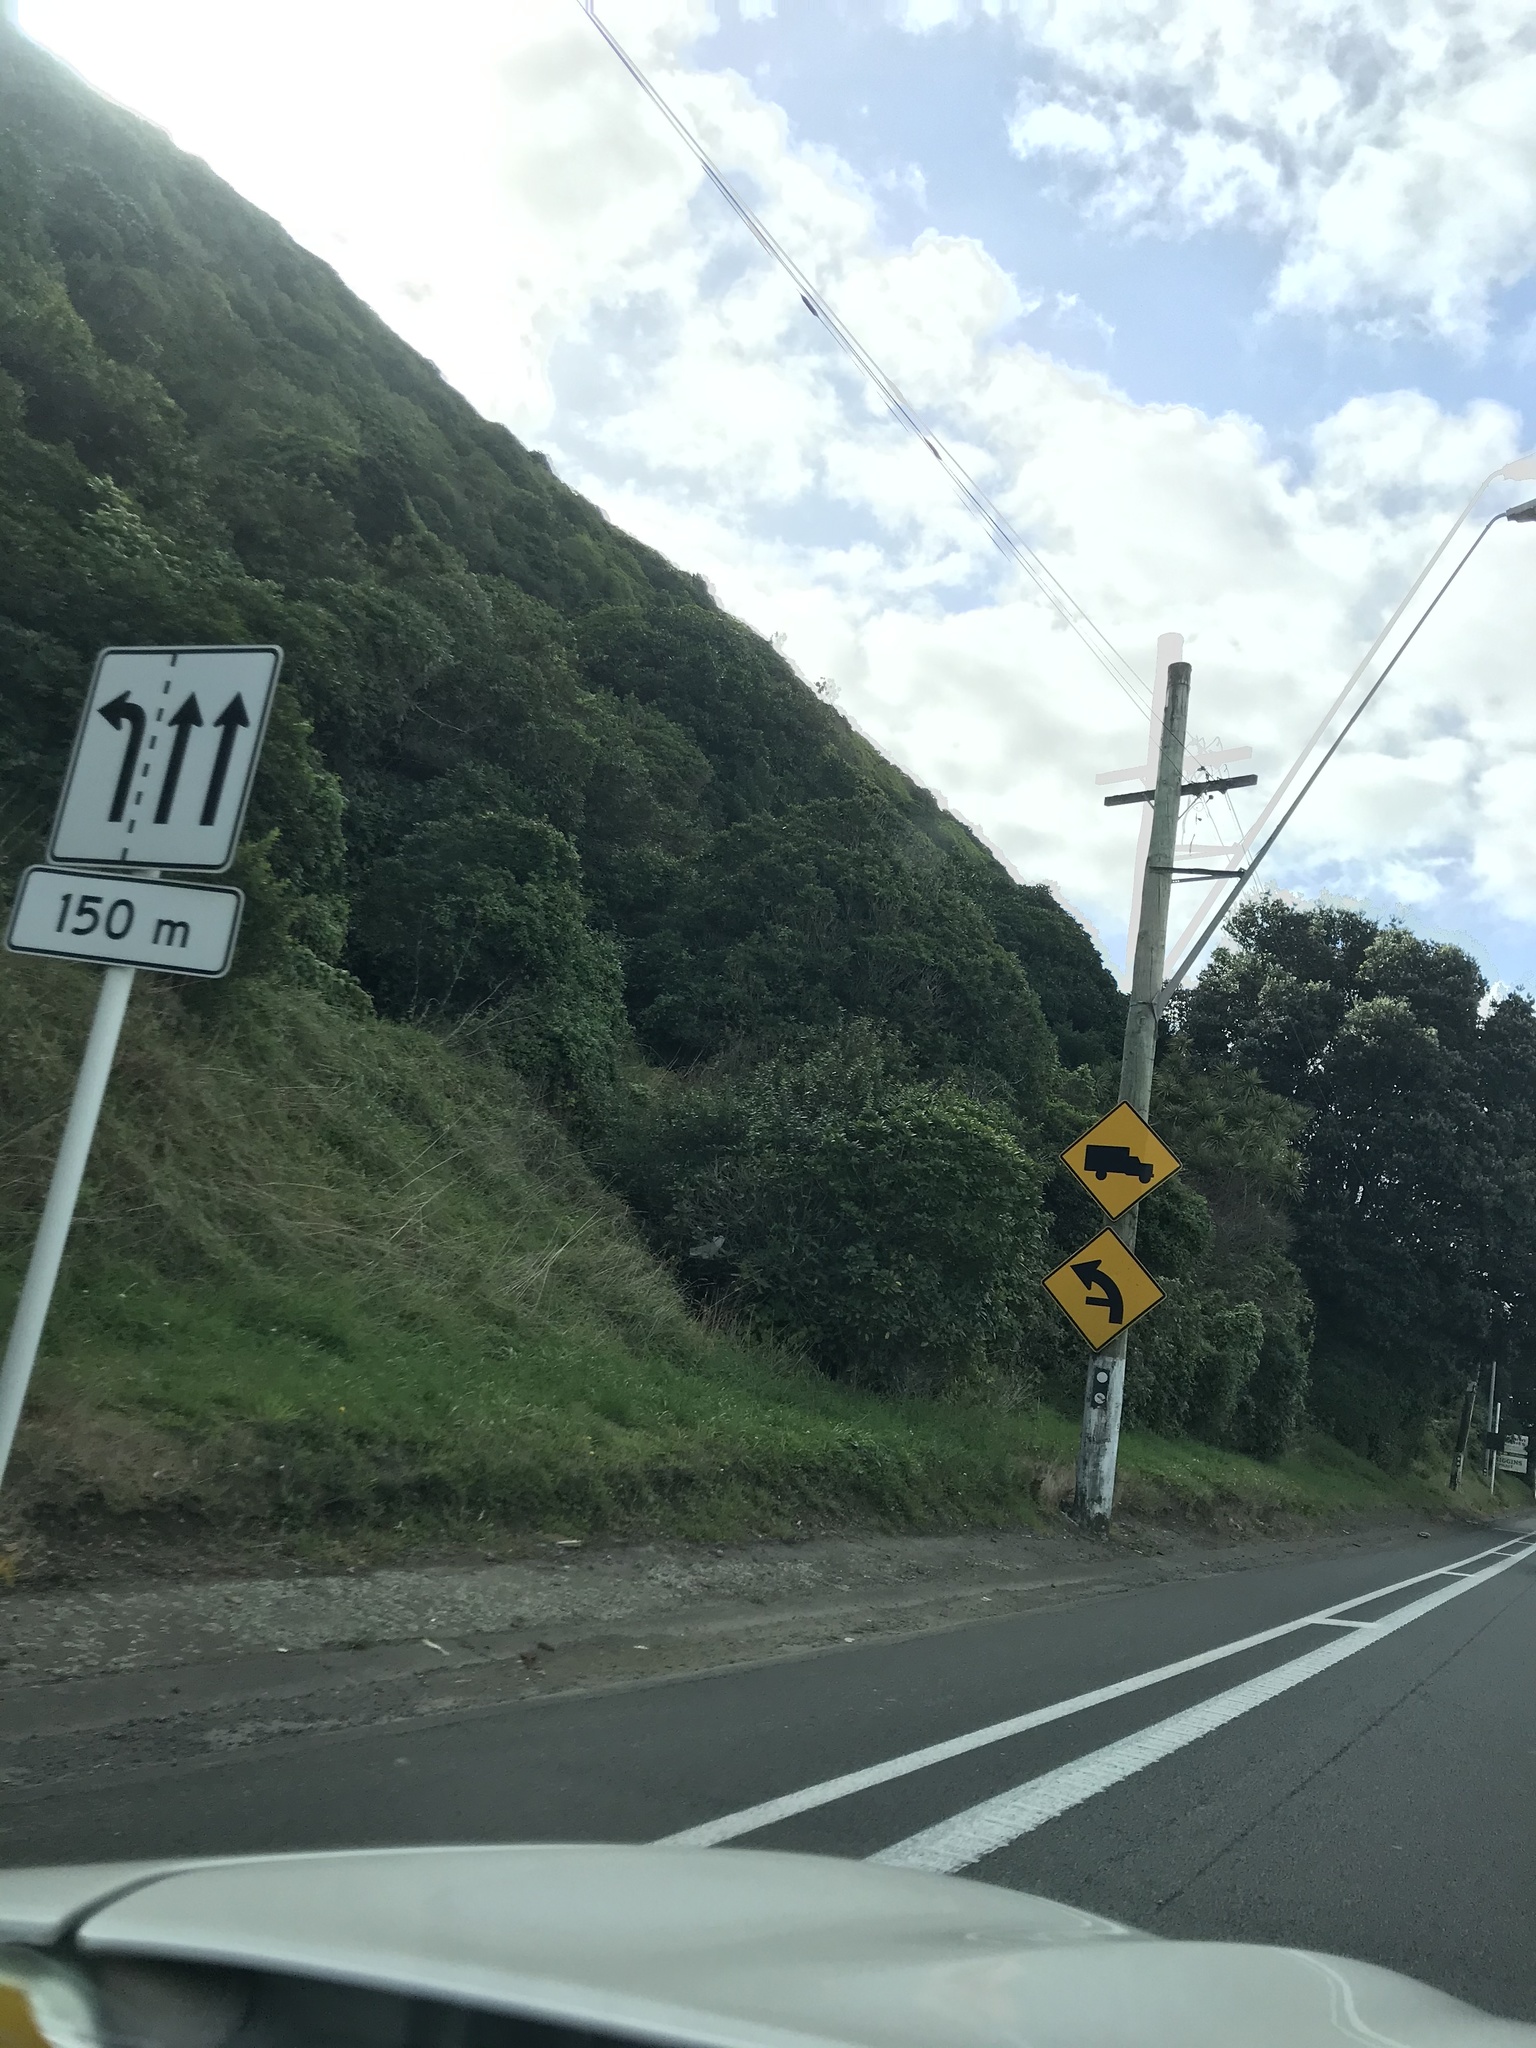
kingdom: Plantae
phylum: Tracheophyta
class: Liliopsida
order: Asparagales
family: Asparagaceae
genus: Cordyline
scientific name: Cordyline australis
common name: Cabbage-palm
